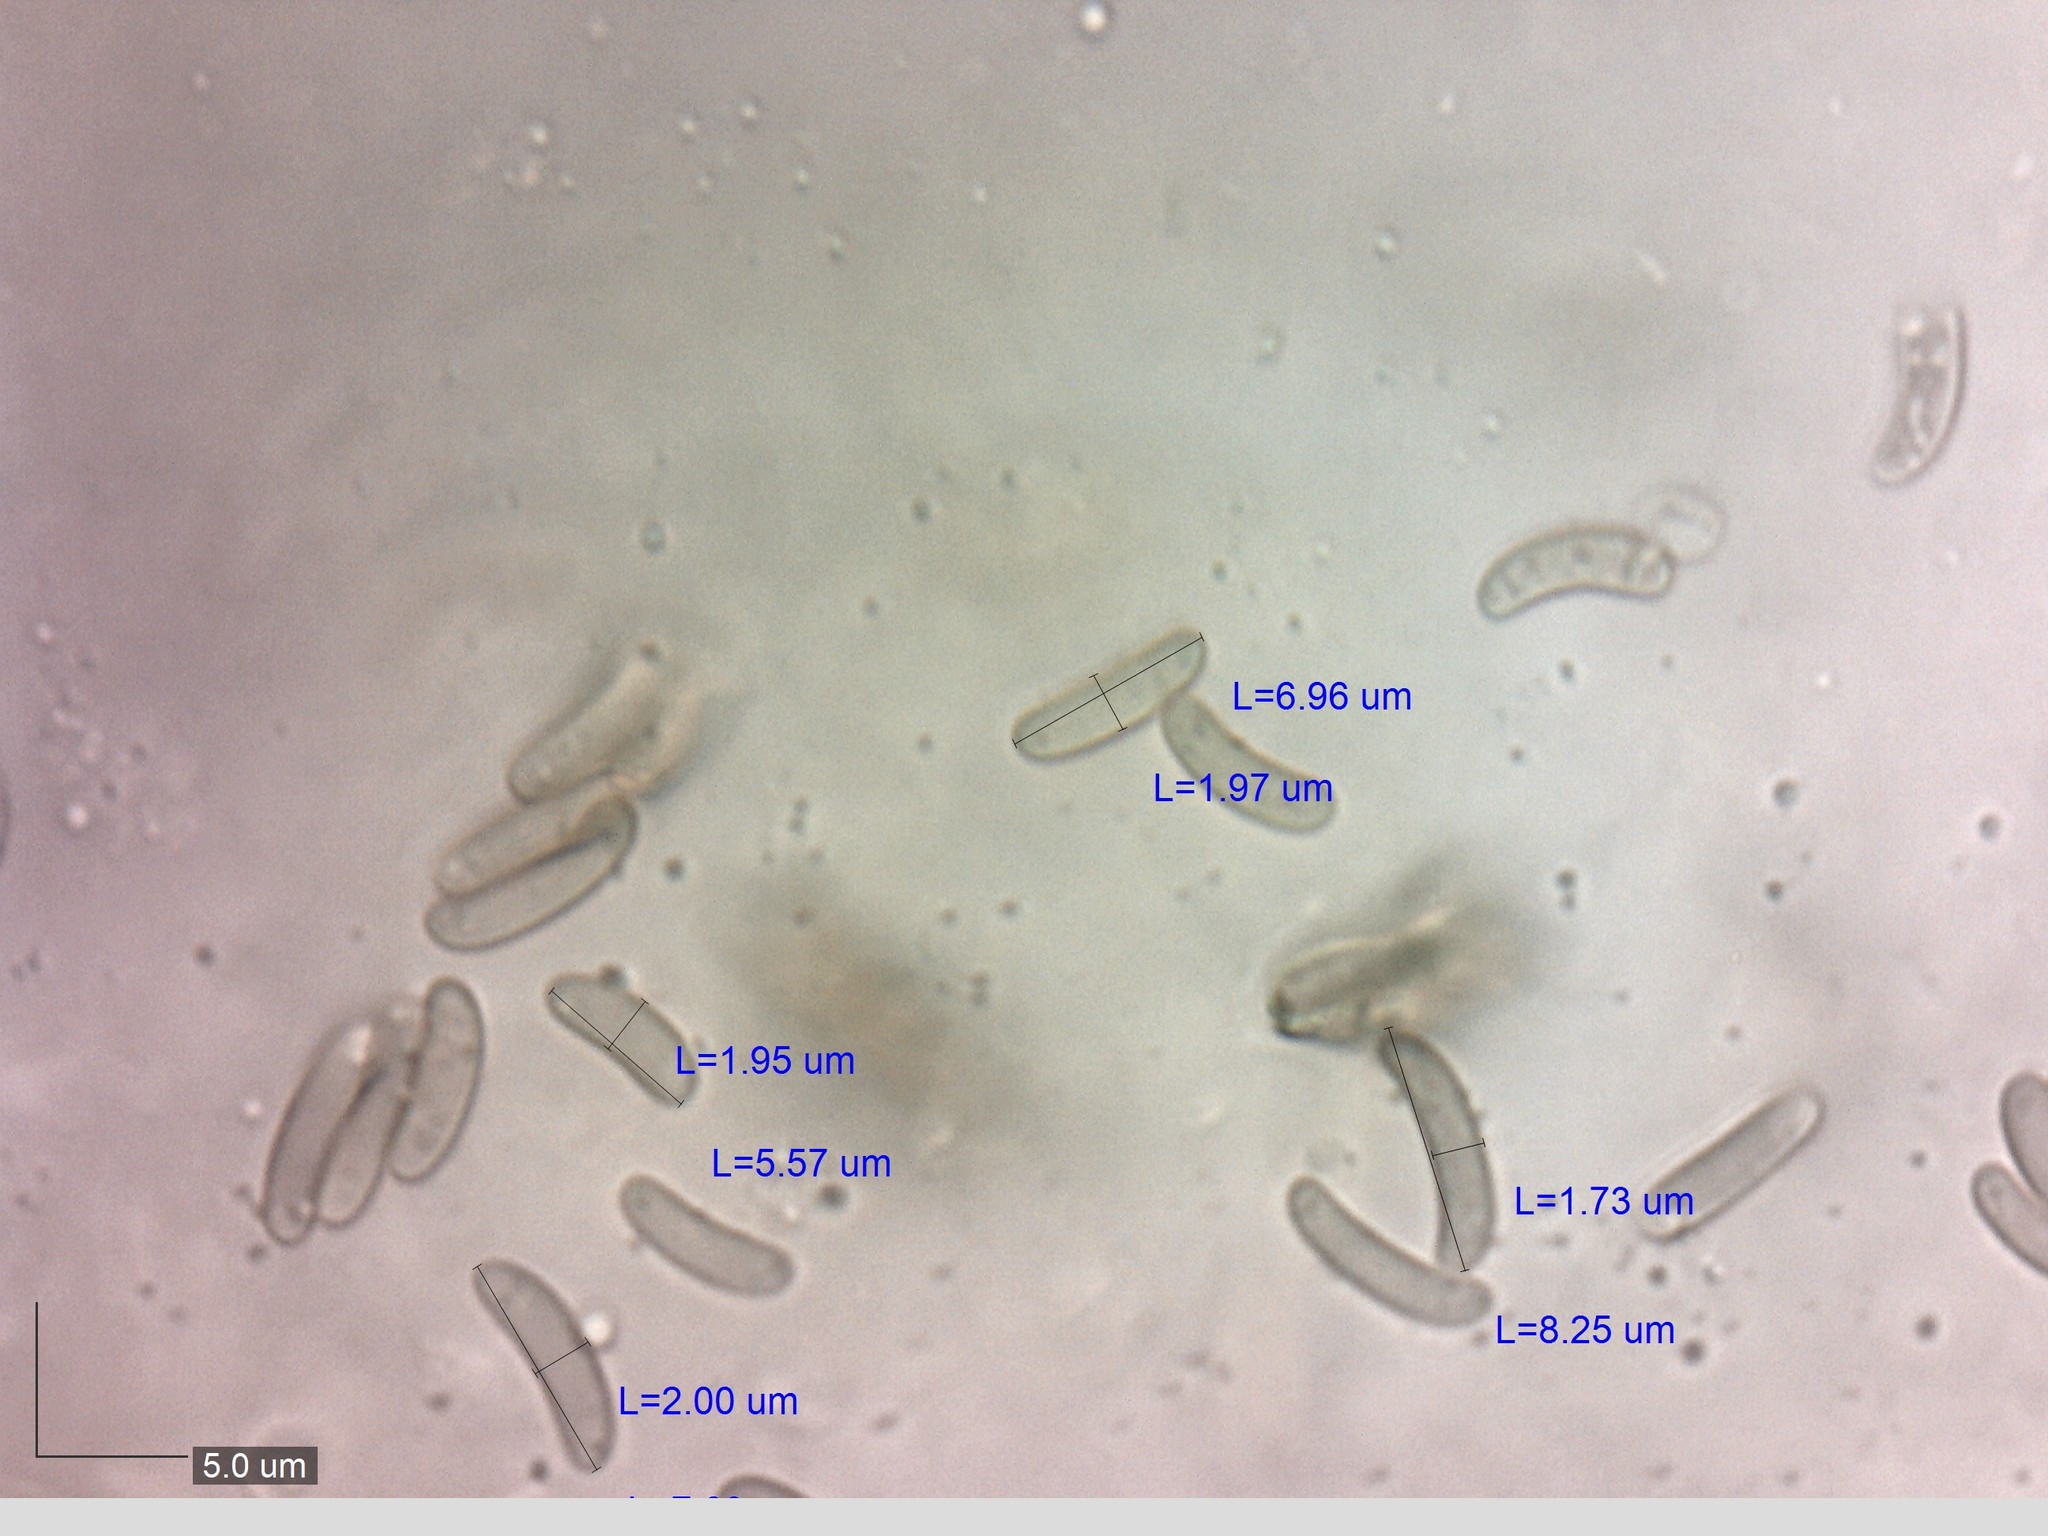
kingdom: Fungi
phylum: Ascomycota
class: Sordariomycetes
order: Xylariales
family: Diatrypaceae
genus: Eutypella
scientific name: Eutypella cerviculata
